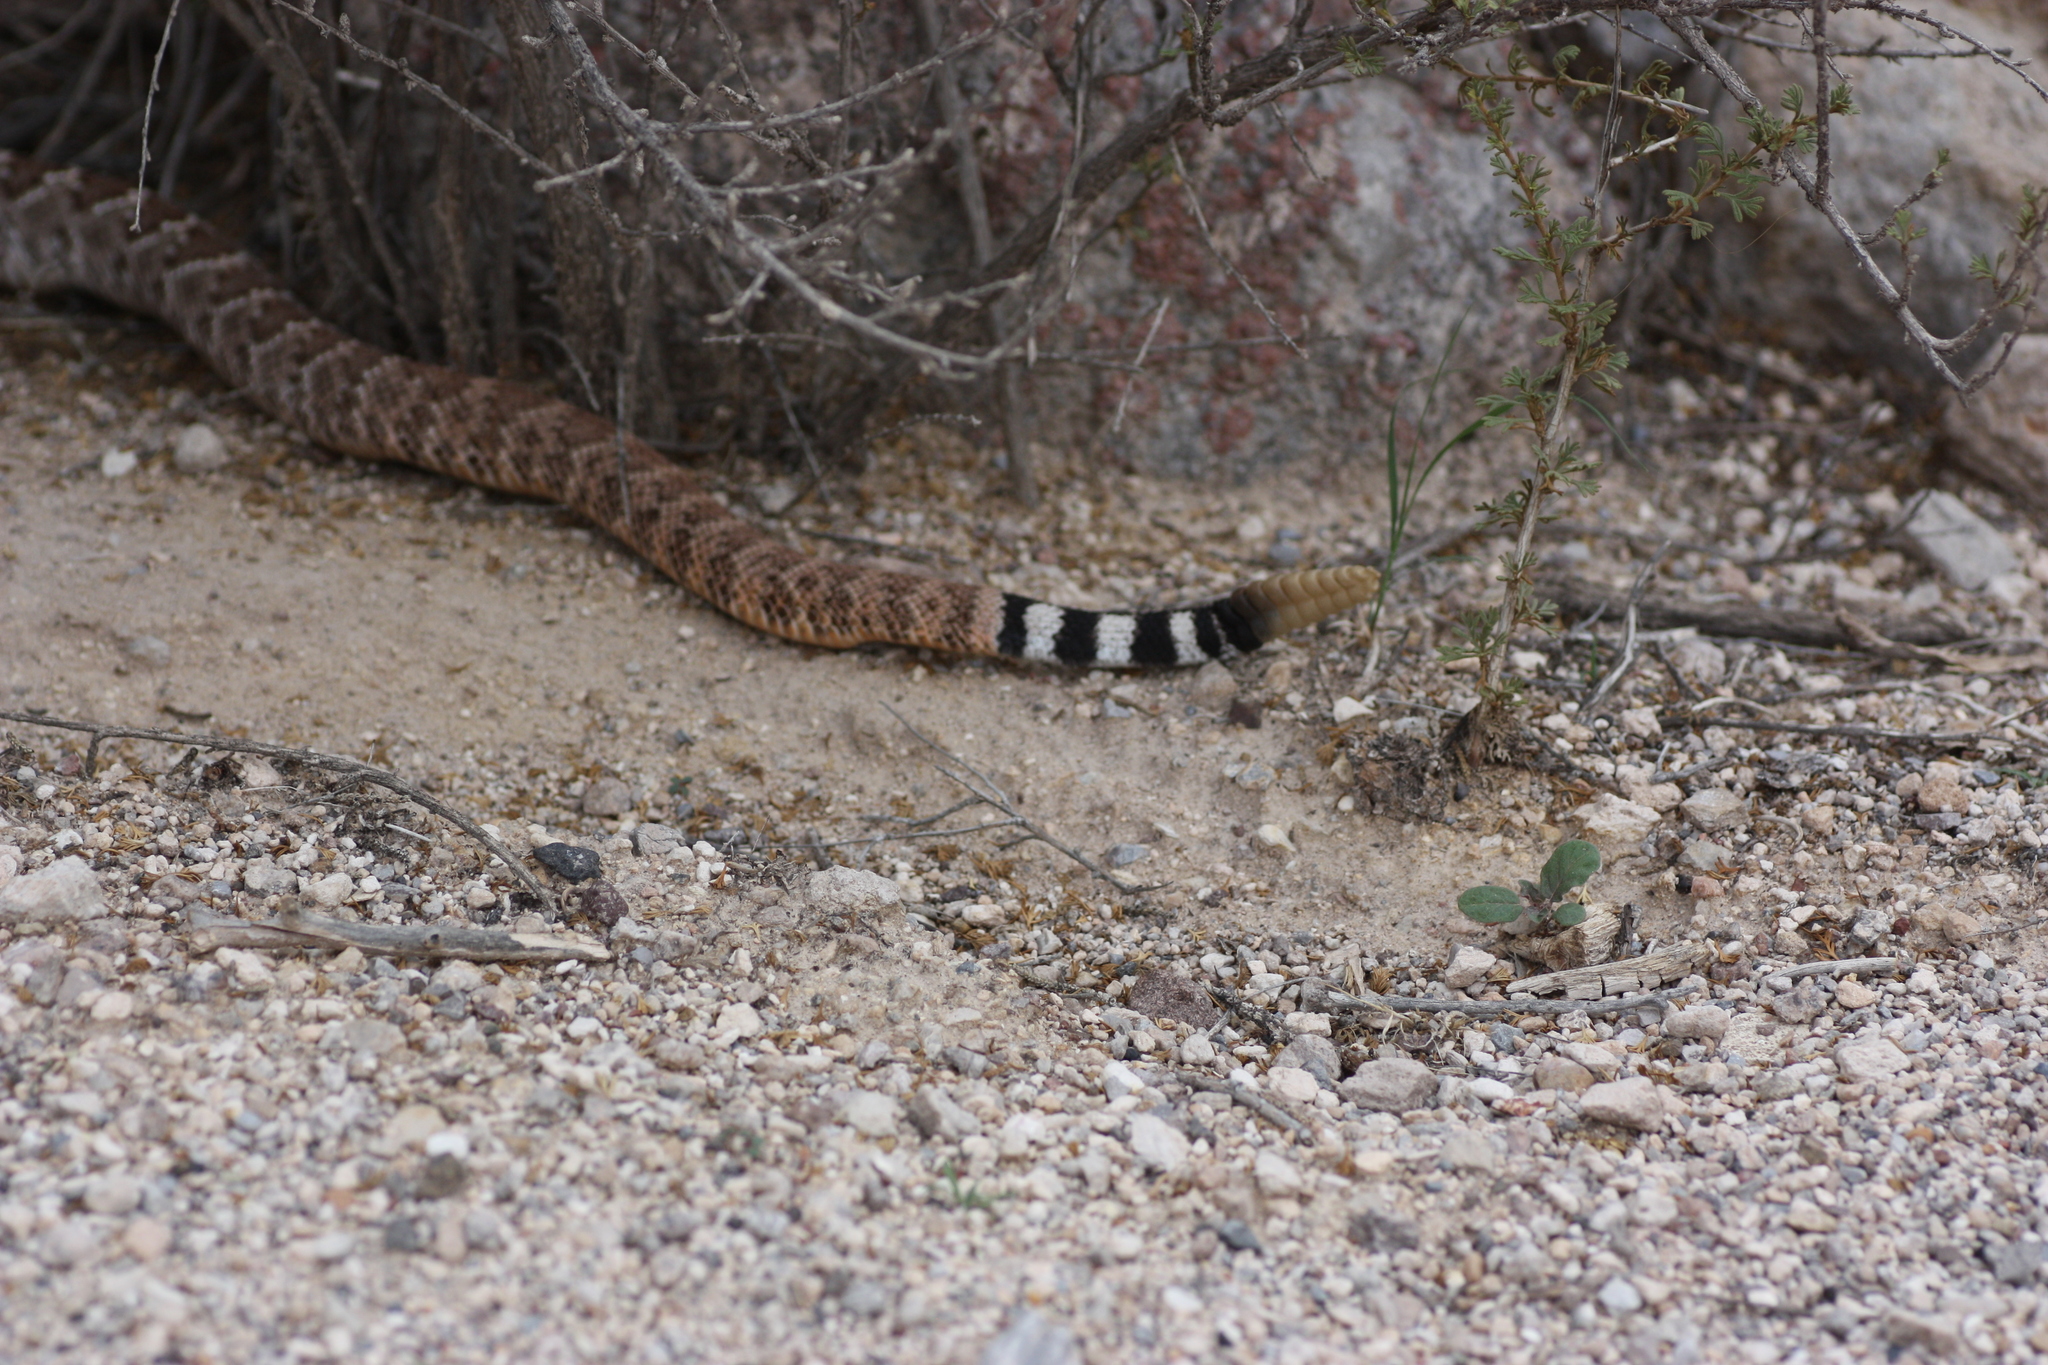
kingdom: Animalia
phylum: Chordata
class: Squamata
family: Viperidae
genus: Crotalus
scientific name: Crotalus atrox
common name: Western diamond-backed rattlesnake
